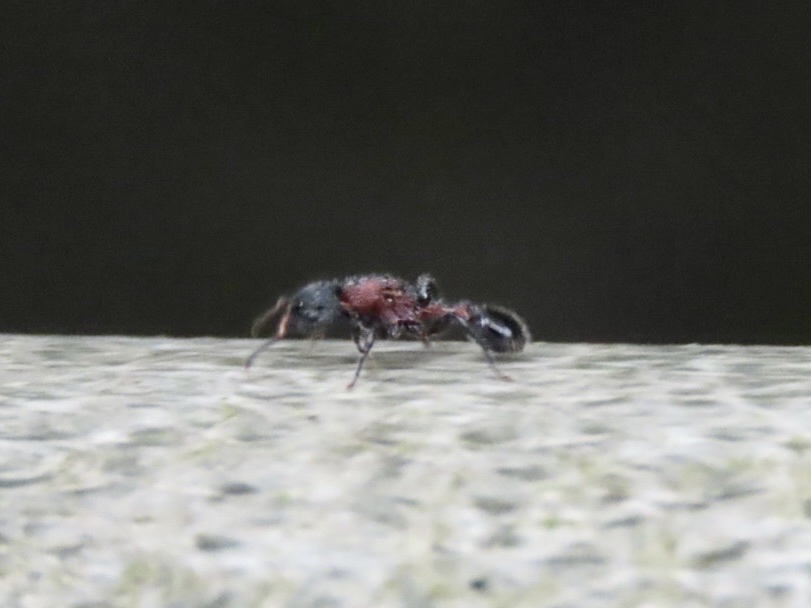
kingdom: Animalia
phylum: Arthropoda
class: Insecta
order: Hymenoptera
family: Formicidae
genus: Dilobocondyla
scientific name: Dilobocondyla fouqueti
